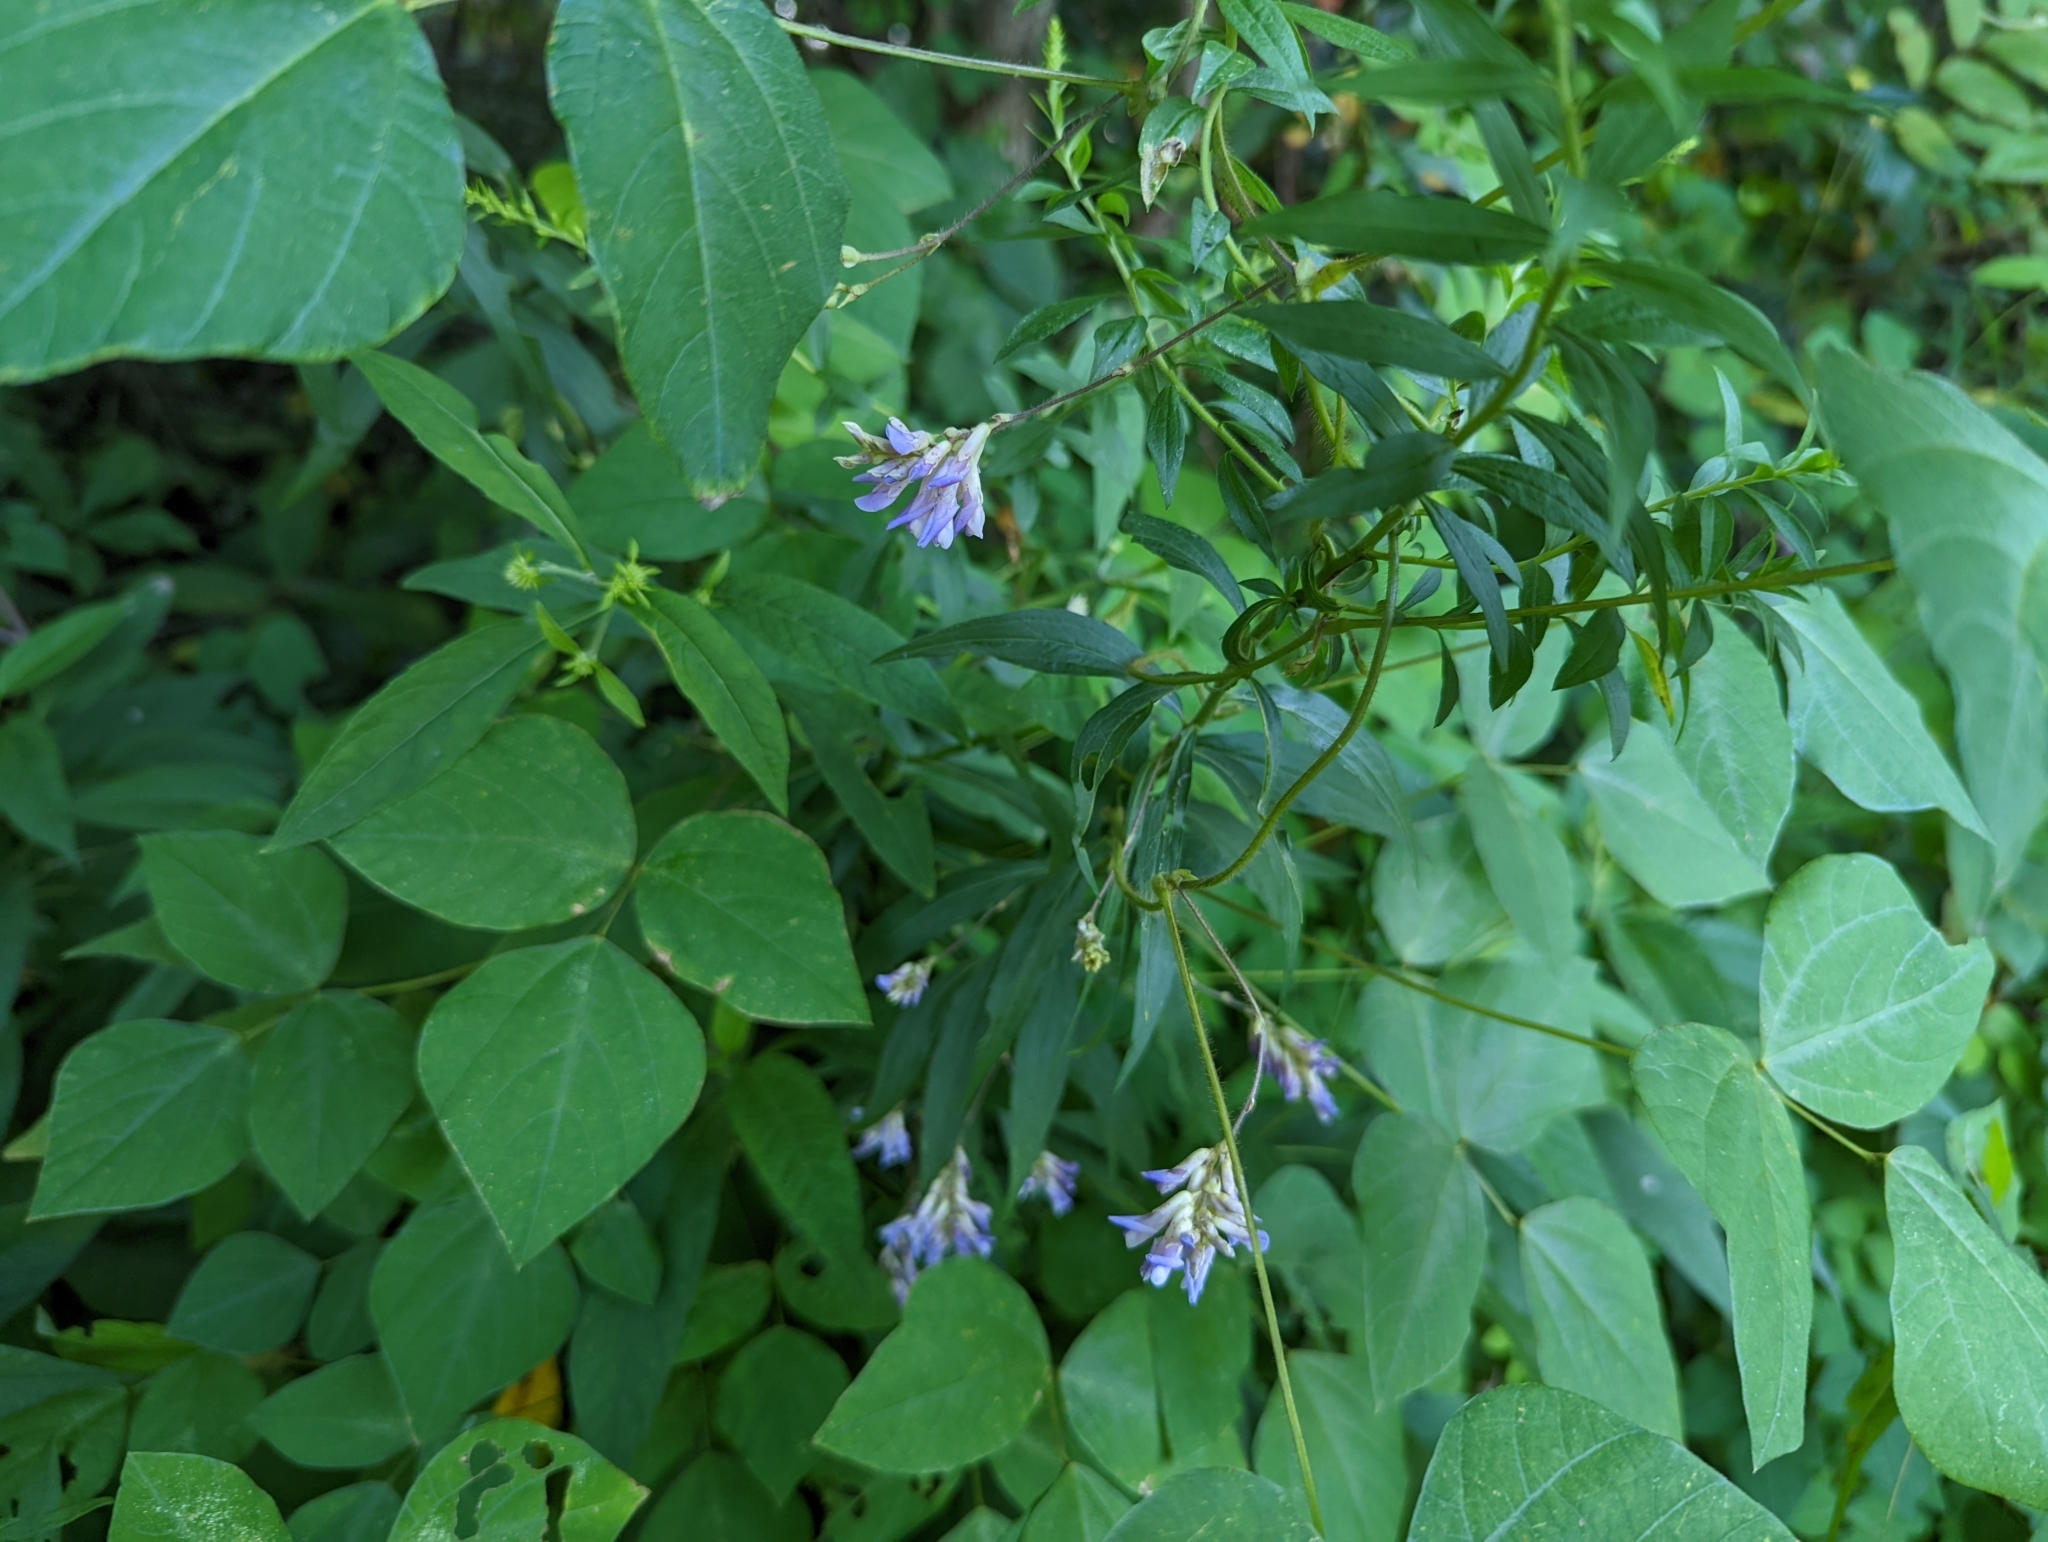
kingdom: Plantae
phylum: Tracheophyta
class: Magnoliopsida
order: Fabales
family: Fabaceae
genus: Amphicarpaea
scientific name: Amphicarpaea bracteata
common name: American hog peanut
